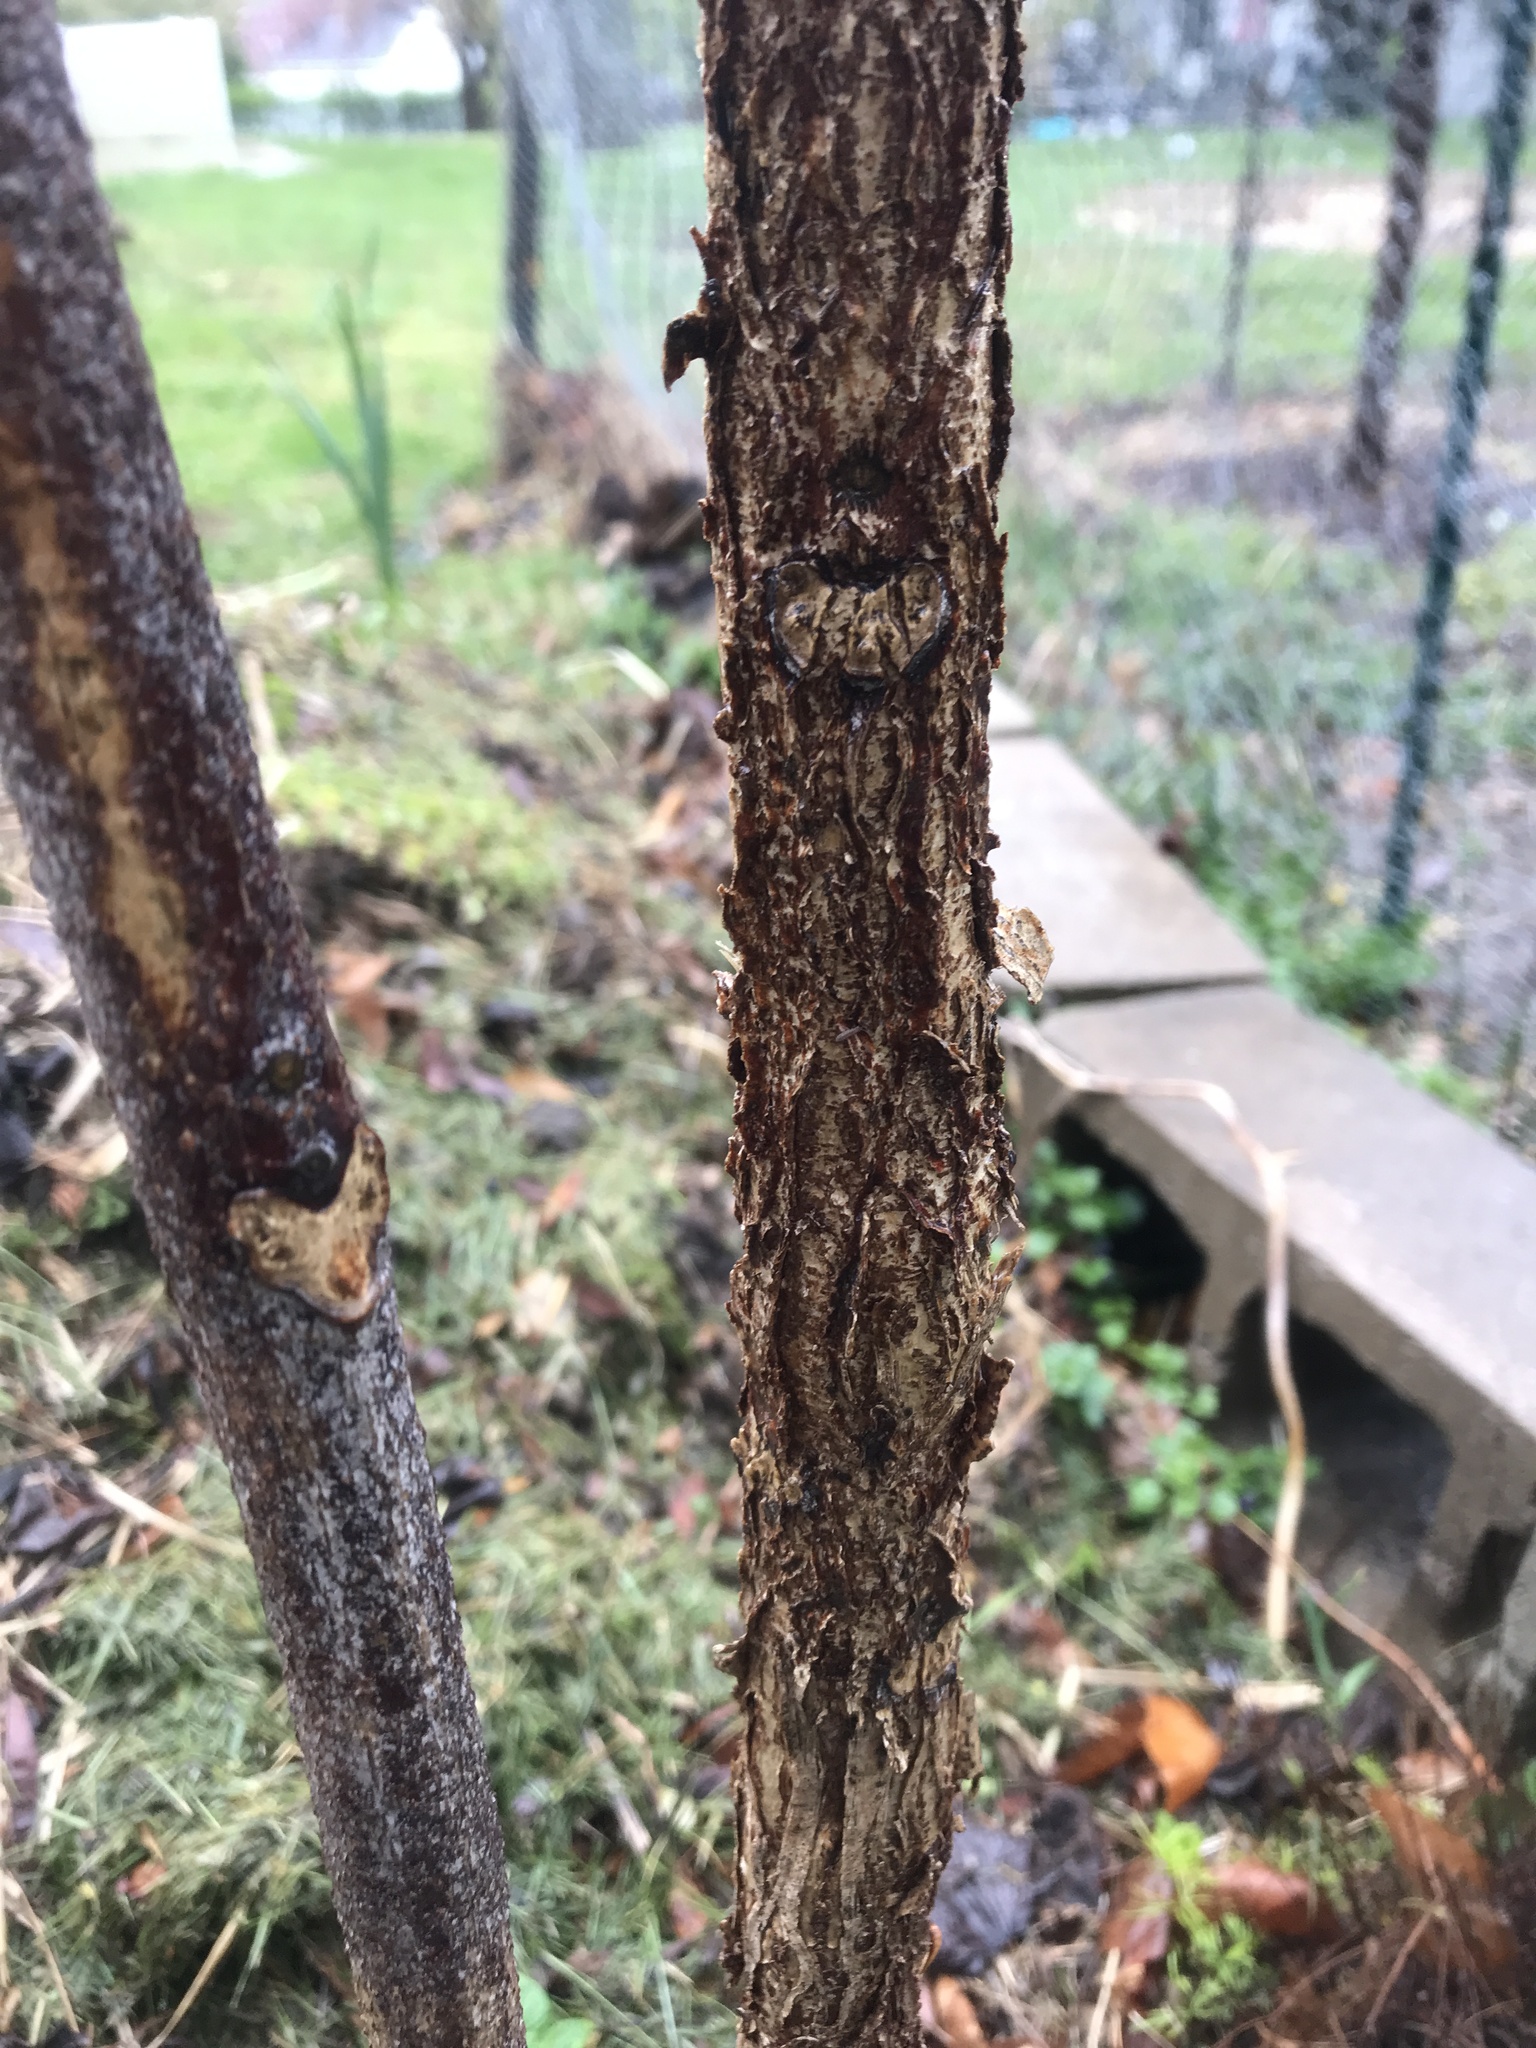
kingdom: Plantae
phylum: Tracheophyta
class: Magnoliopsida
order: Fabales
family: Fabaceae
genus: Gymnocladus
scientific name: Gymnocladus dioicus
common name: Kentucky coffee-tree
